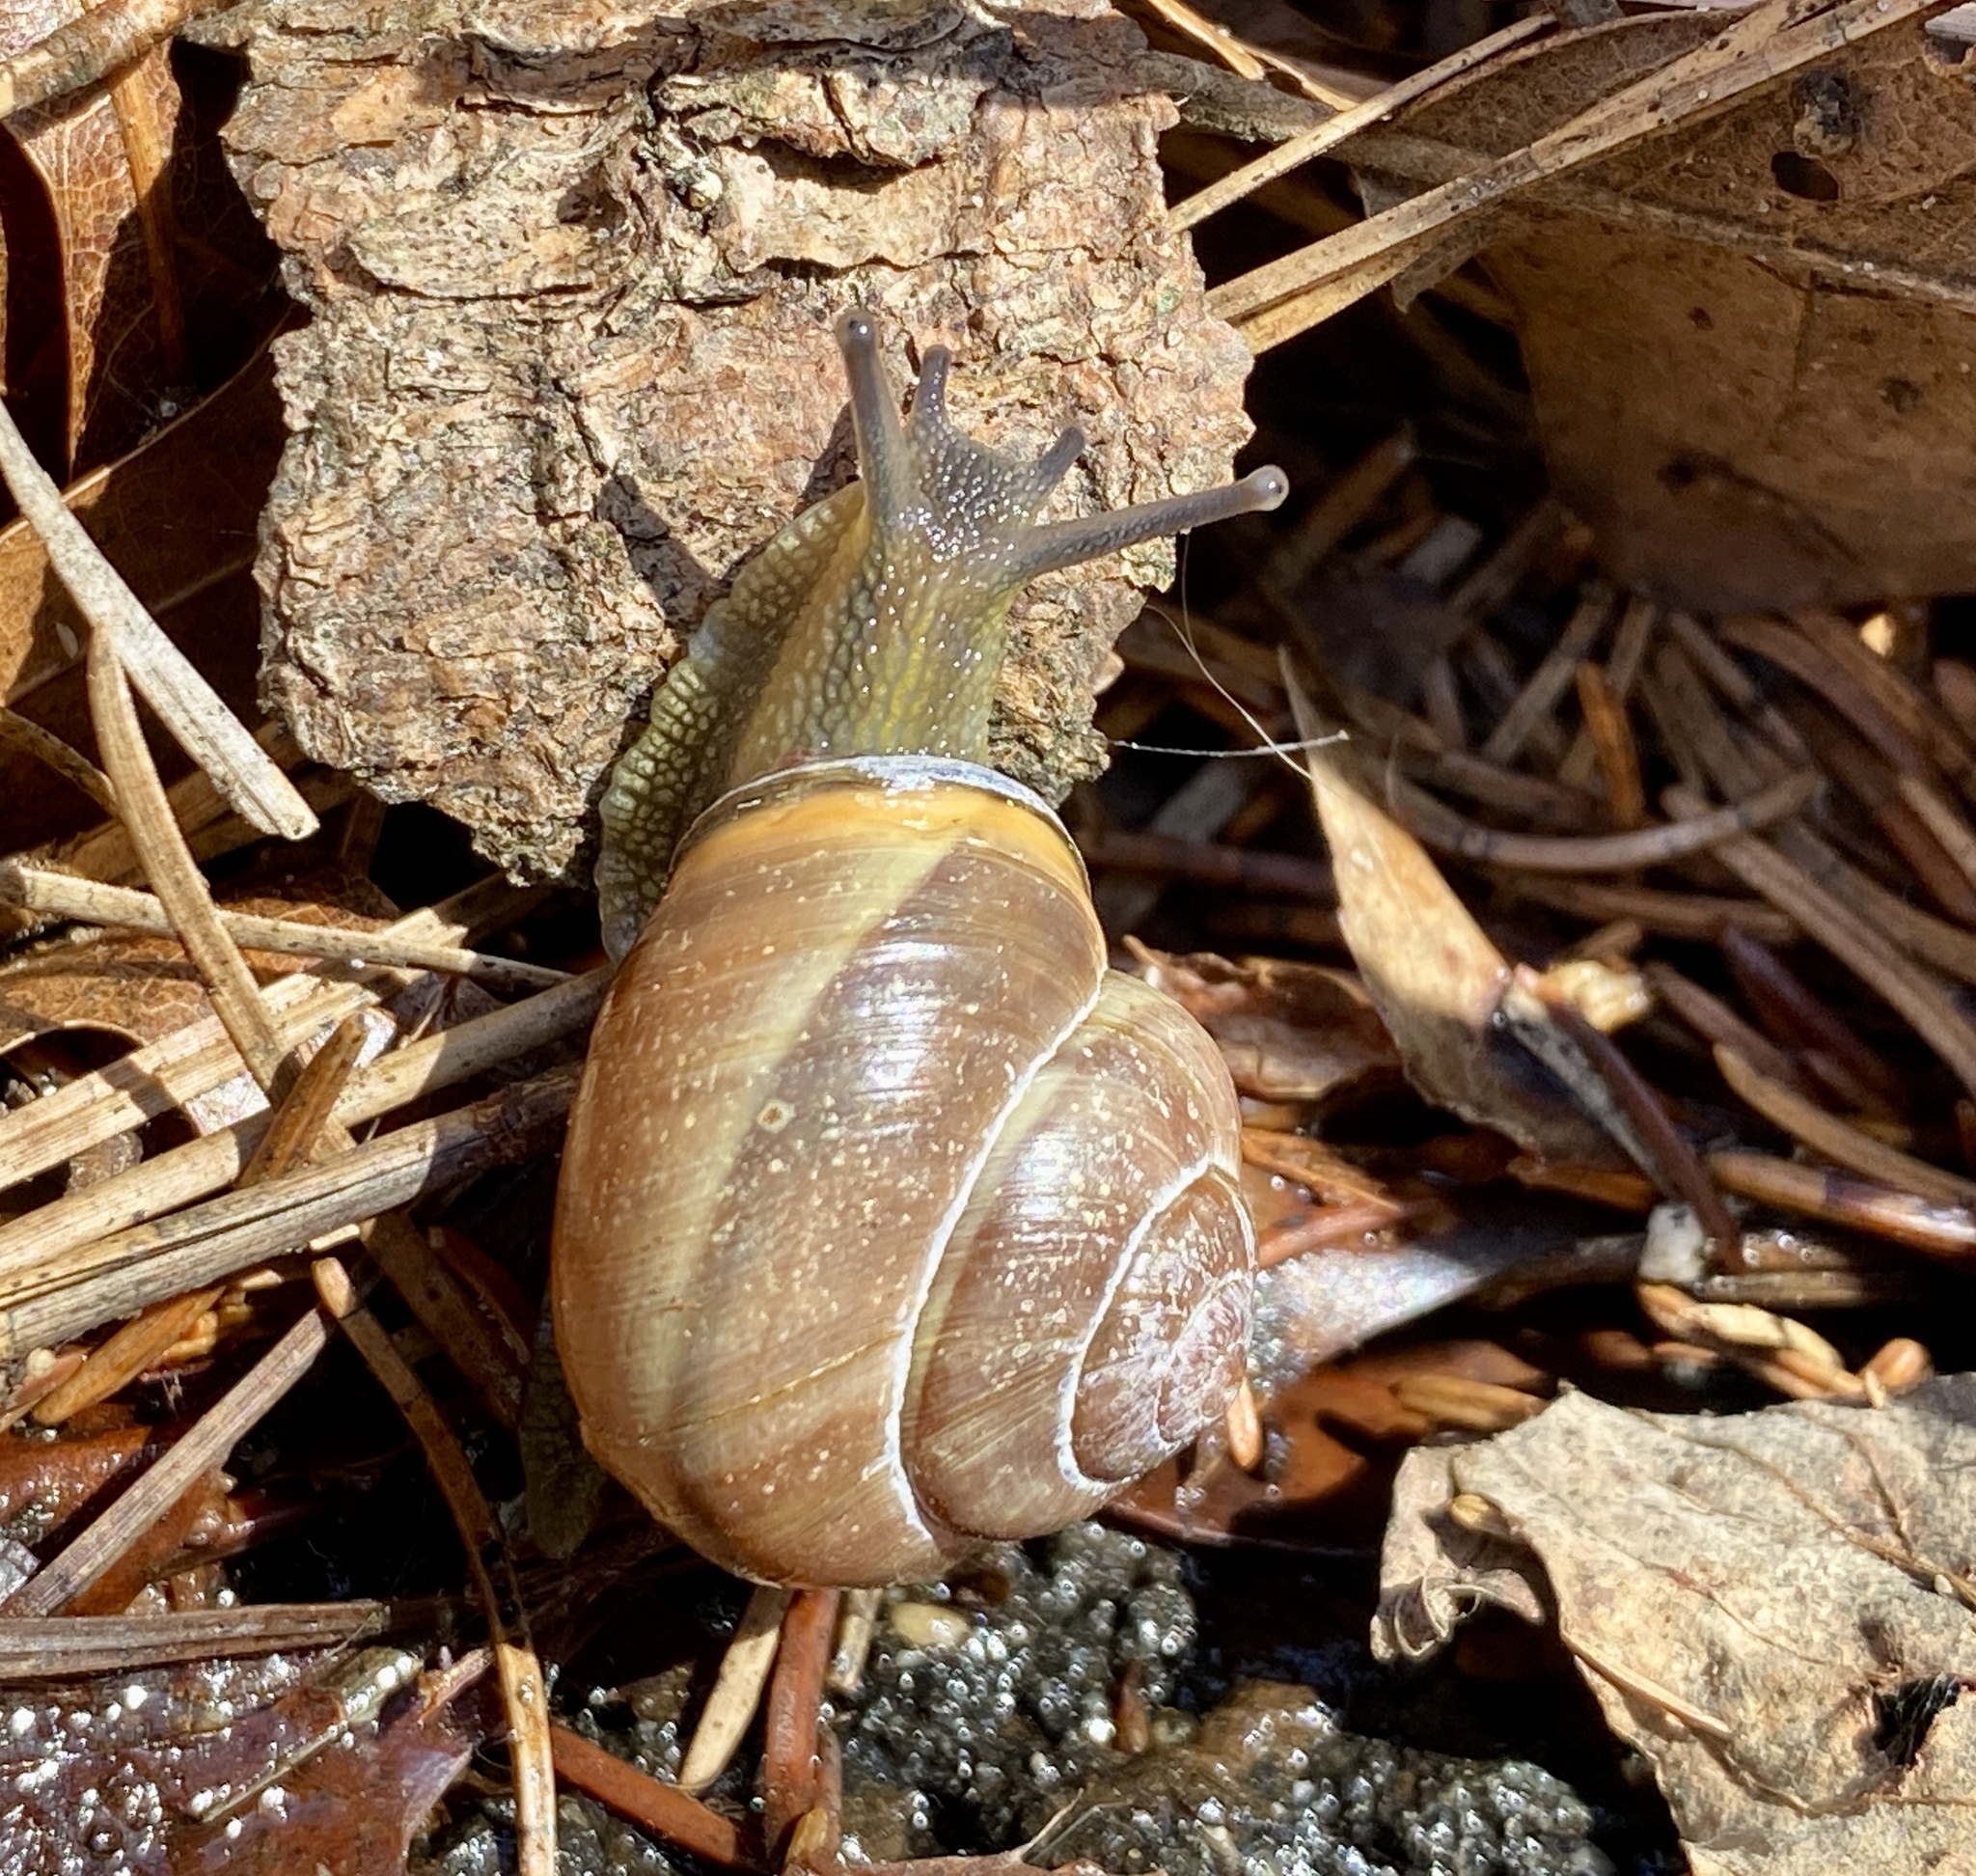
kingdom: Animalia
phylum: Mollusca
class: Gastropoda
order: Stylommatophora
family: Helicidae
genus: Cepaea
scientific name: Cepaea nemoralis
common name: Grovesnail
